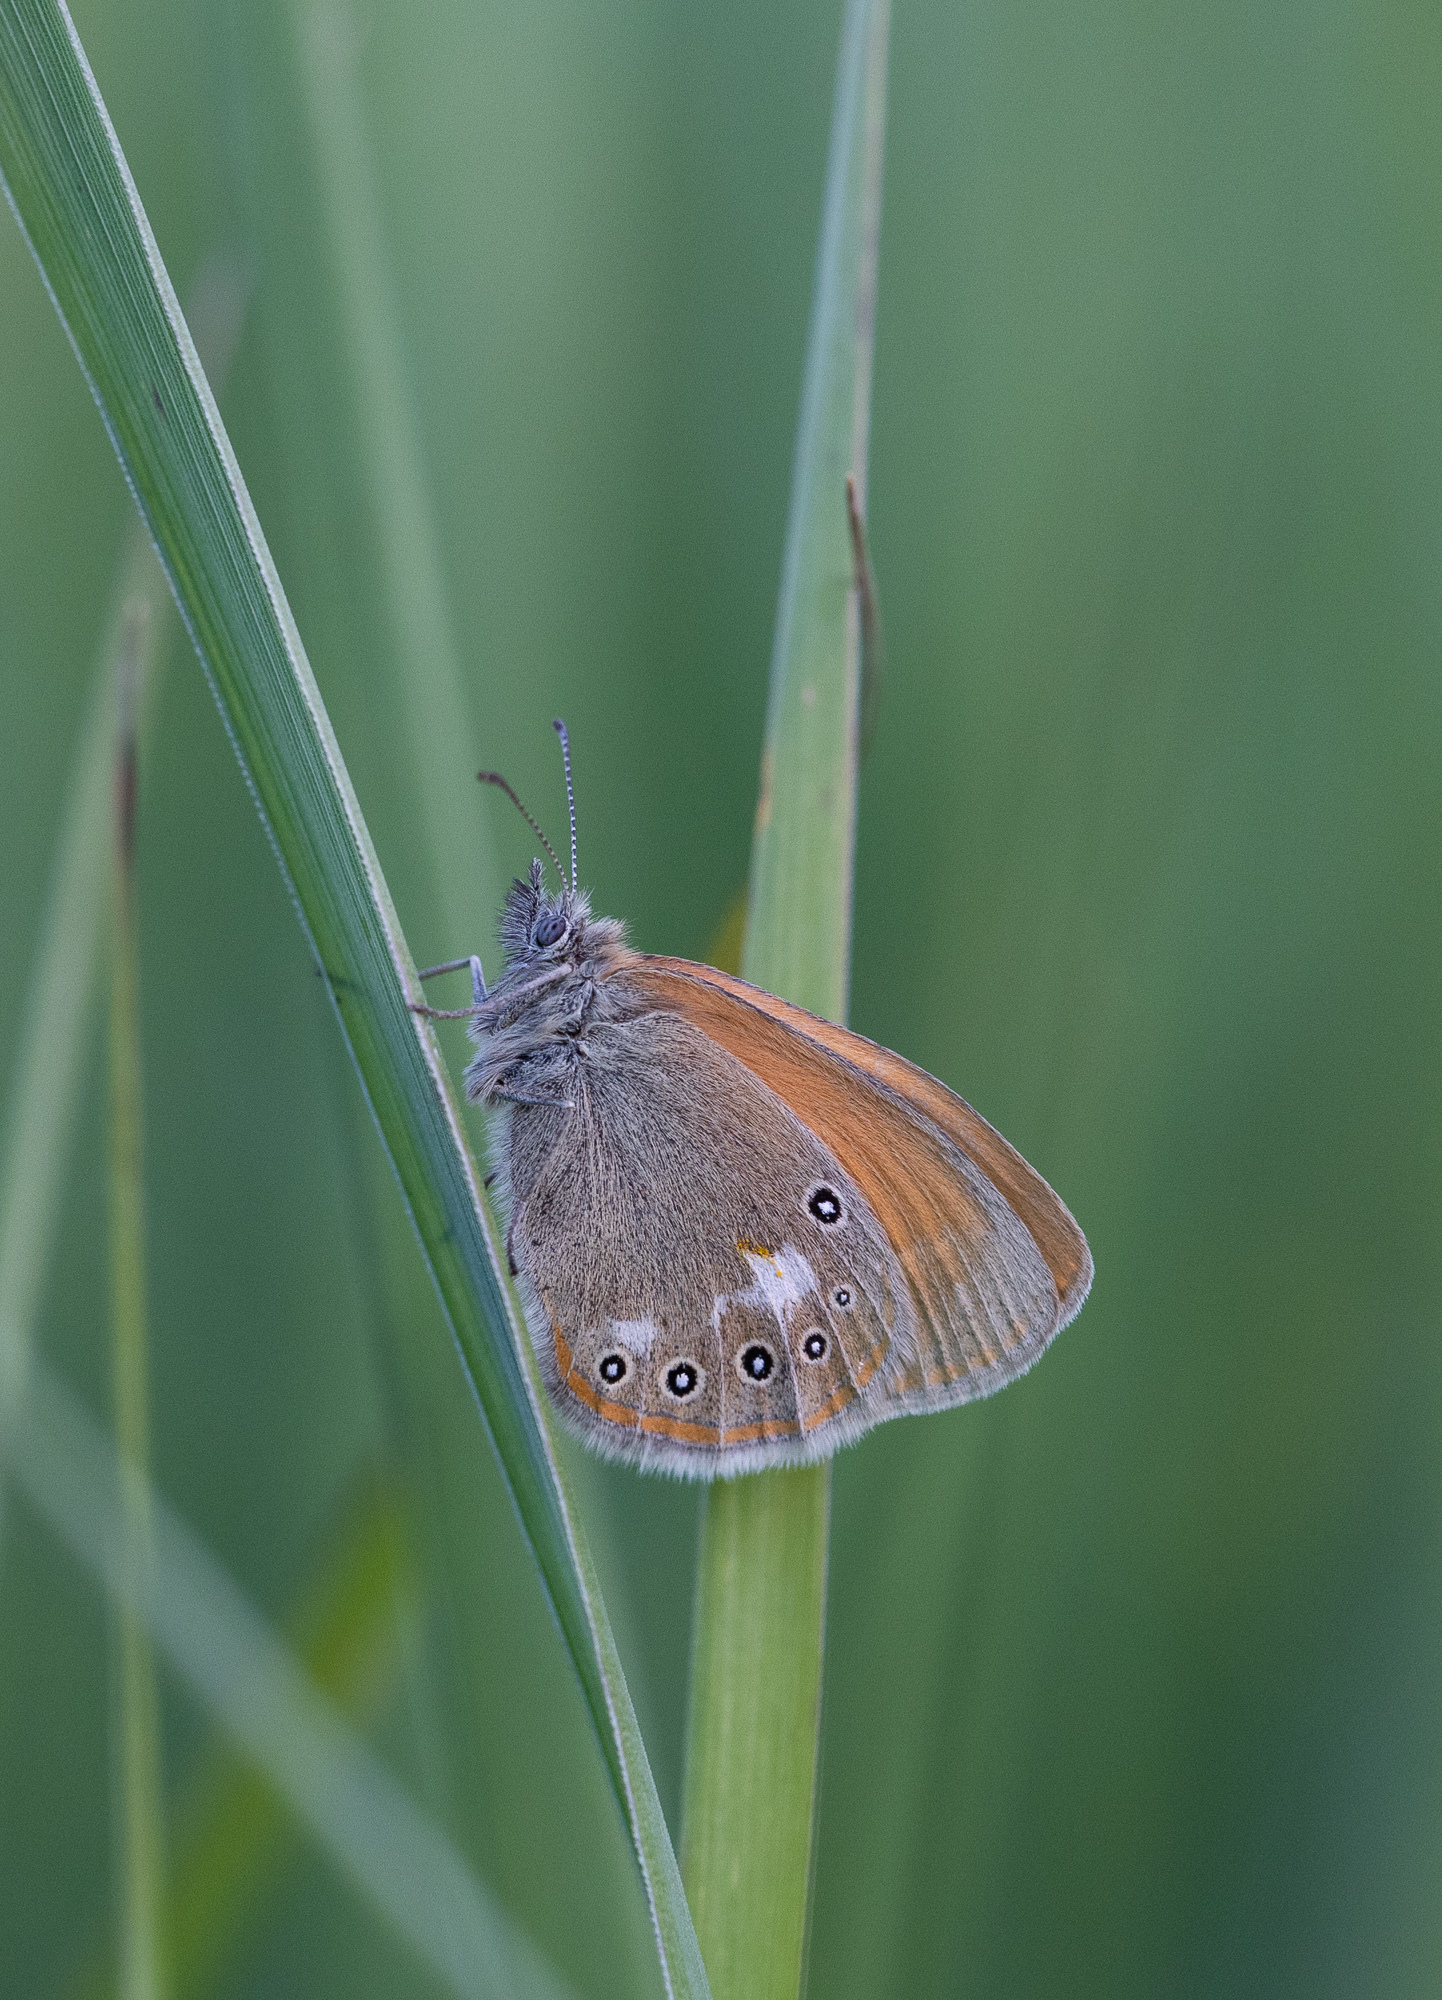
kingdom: Animalia
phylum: Arthropoda
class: Insecta
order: Lepidoptera
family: Nymphalidae
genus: Coenonympha
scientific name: Coenonympha iphis
